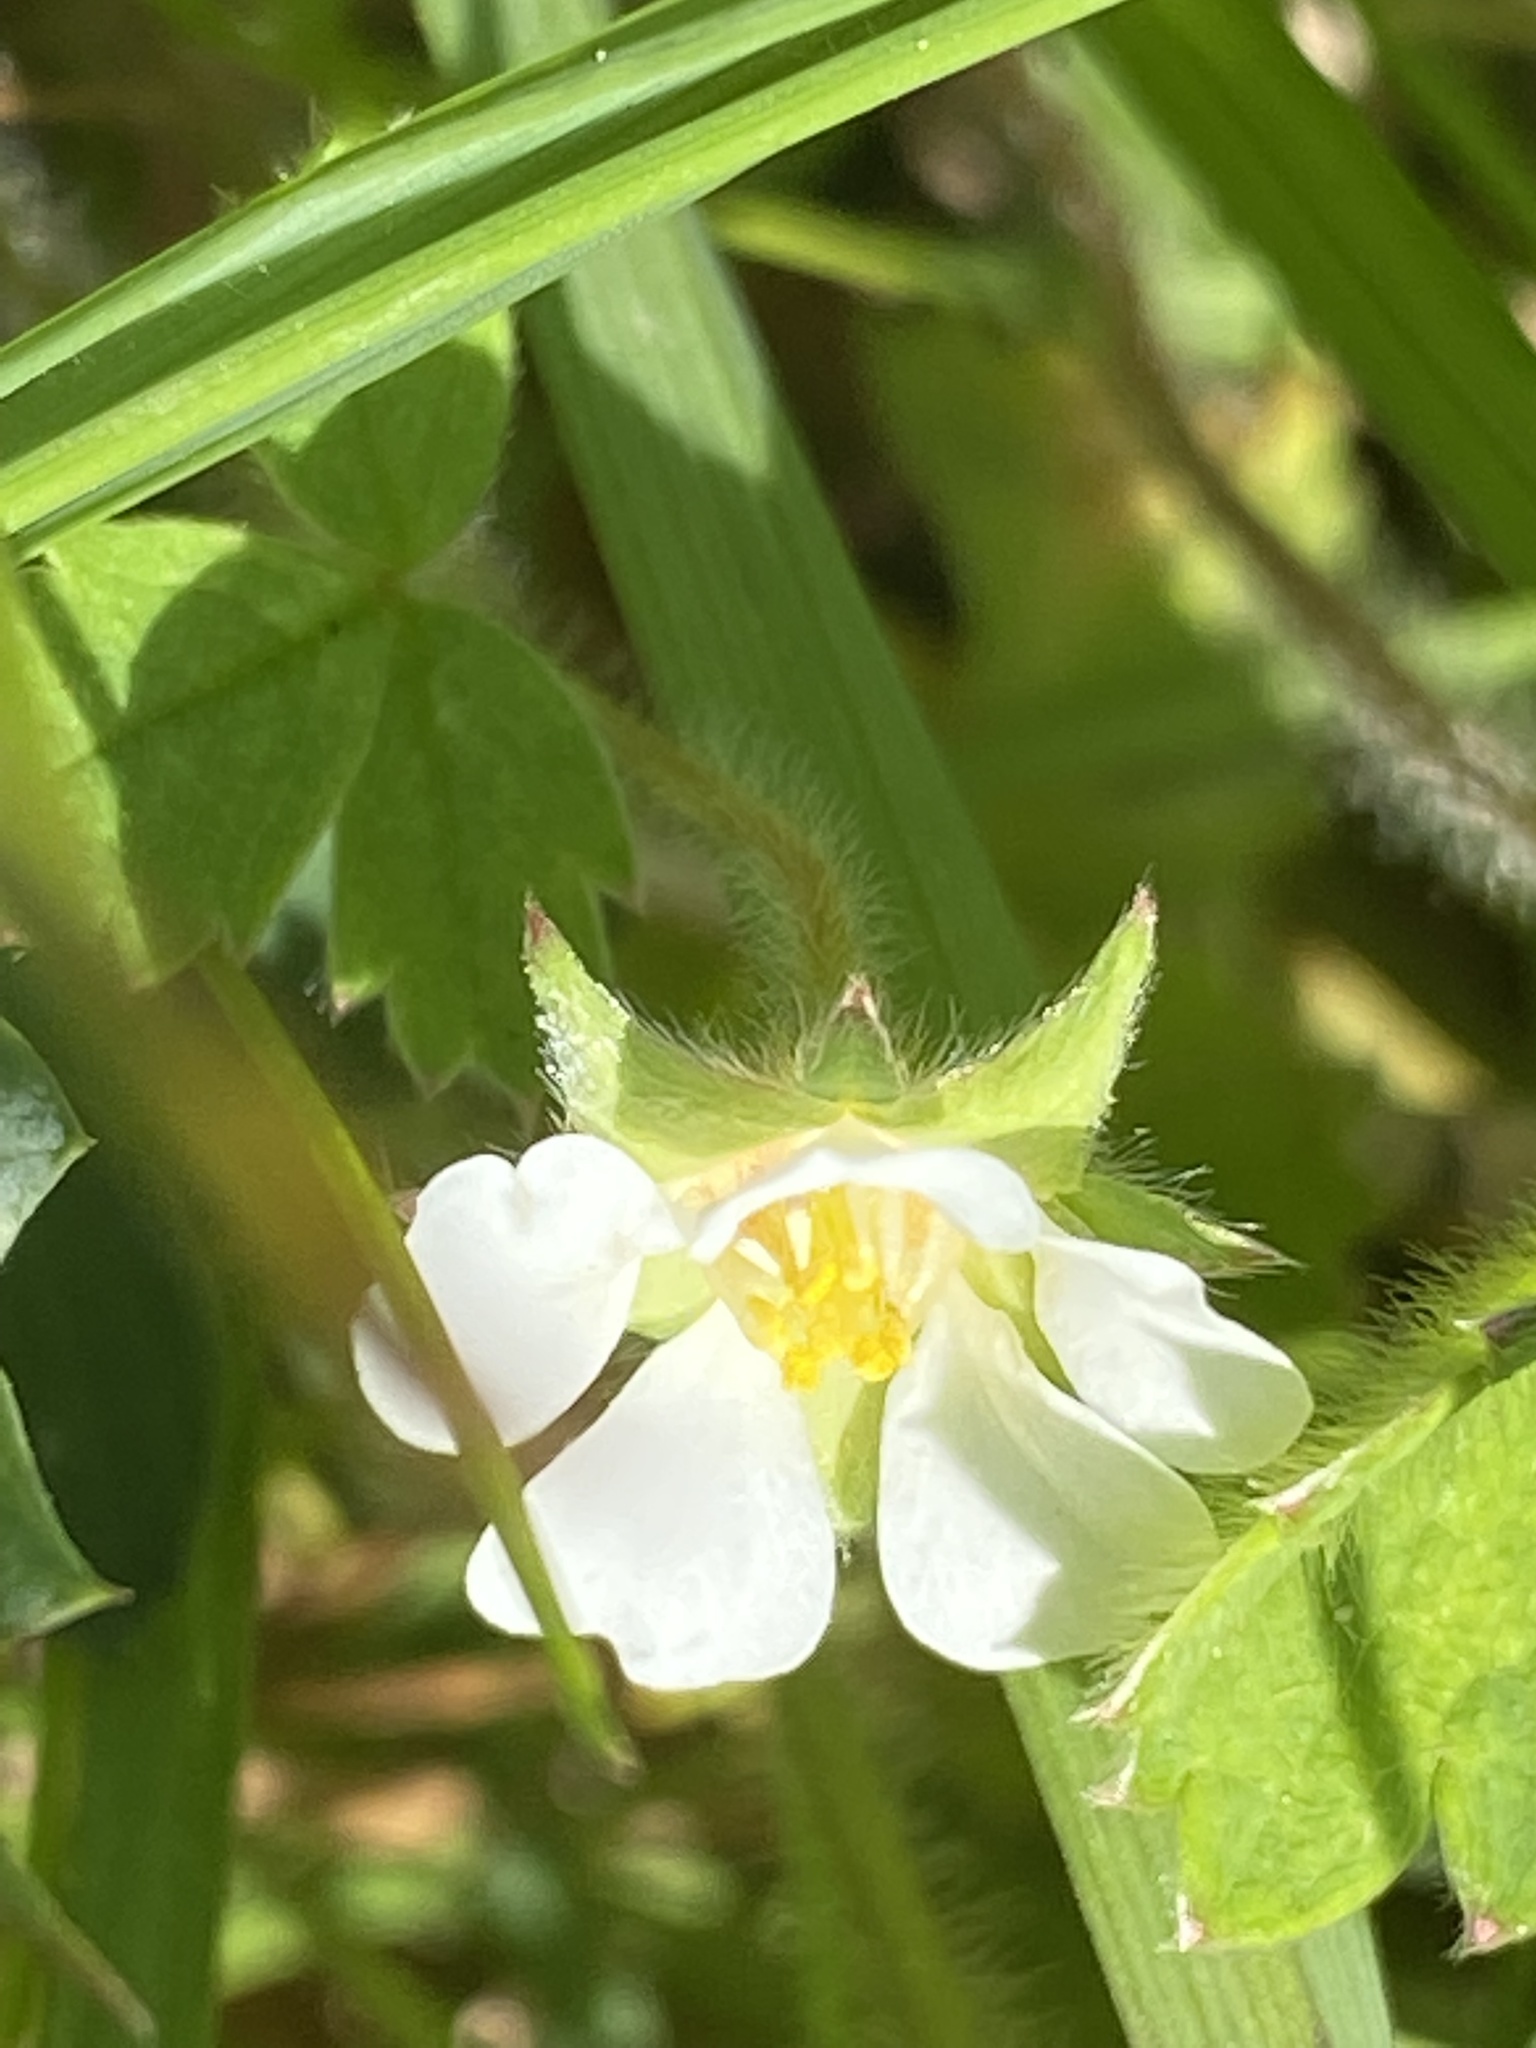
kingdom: Plantae
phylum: Tracheophyta
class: Magnoliopsida
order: Rosales
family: Rosaceae
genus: Potentilla
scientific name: Potentilla sterilis
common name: Barren strawberry
